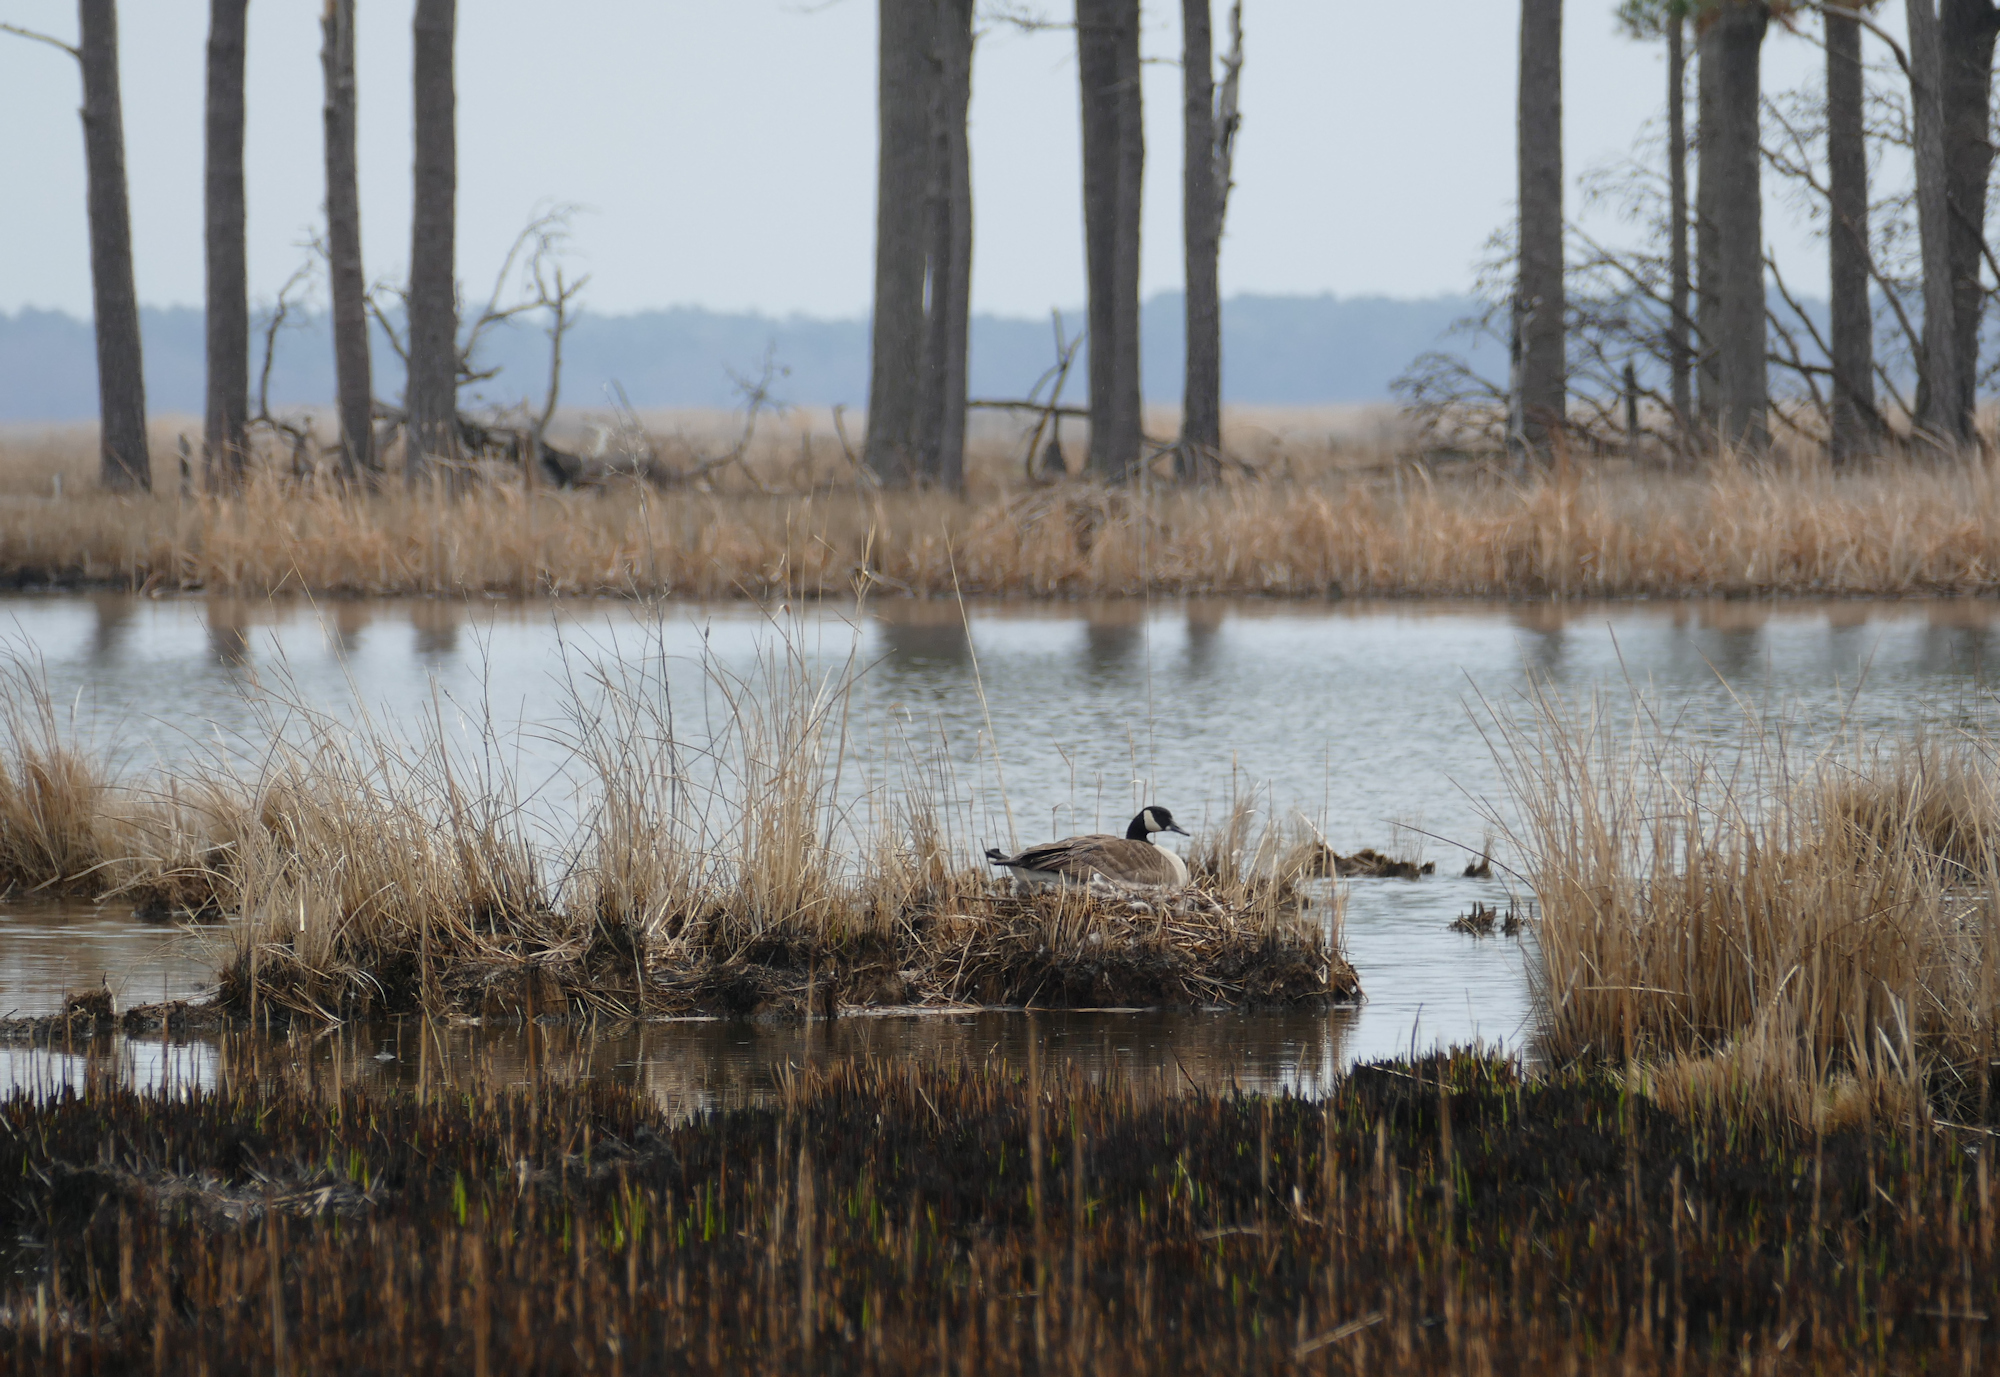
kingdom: Animalia
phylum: Chordata
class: Aves
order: Anseriformes
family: Anatidae
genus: Branta
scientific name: Branta canadensis
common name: Canada goose
